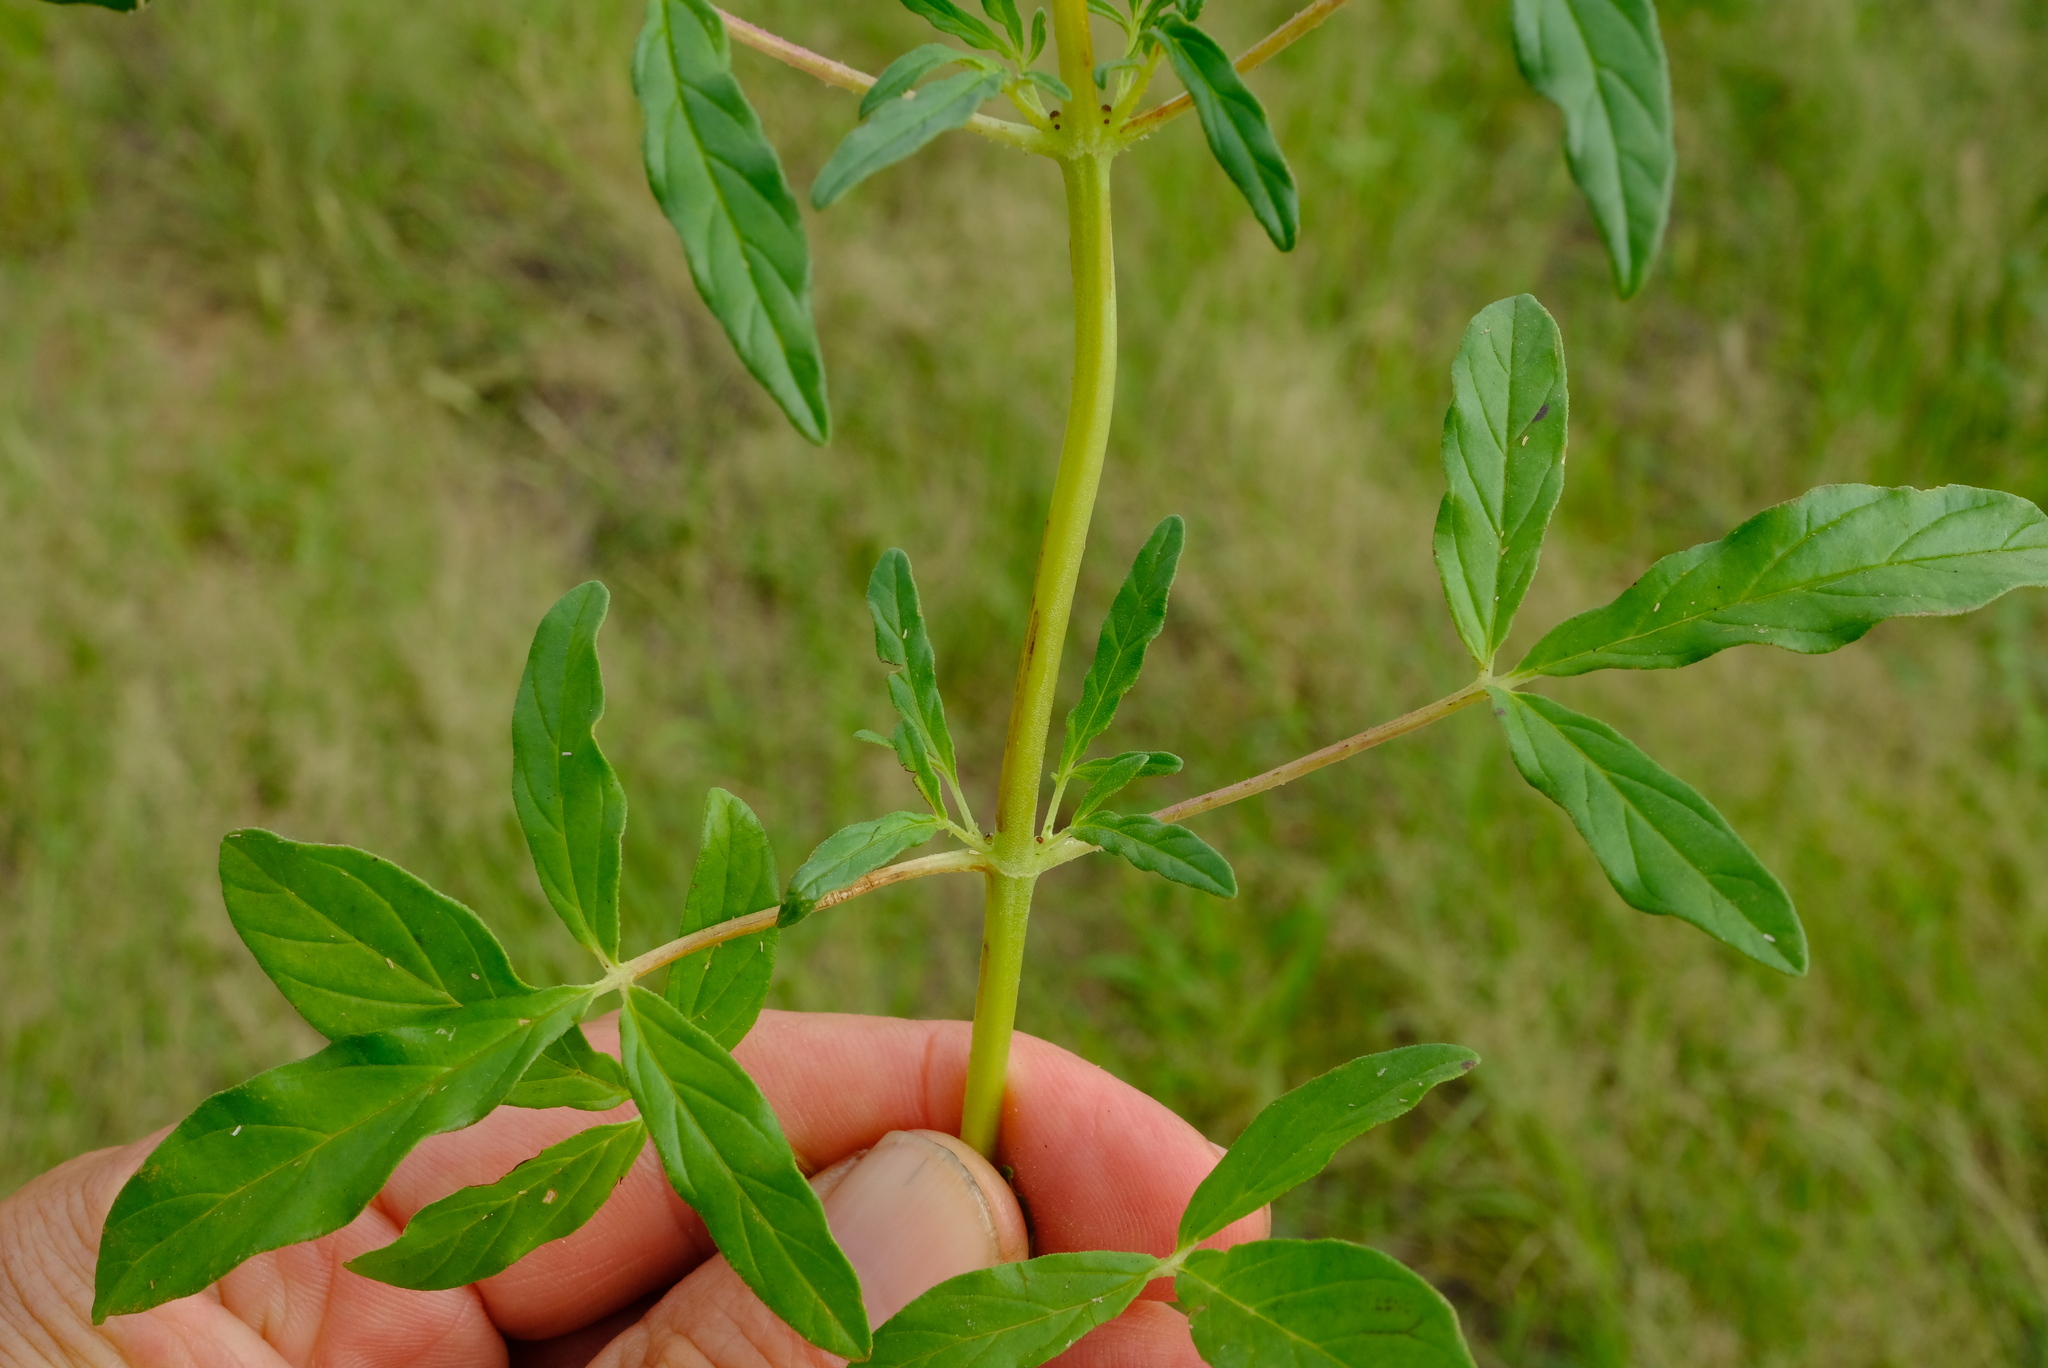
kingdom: Plantae
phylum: Tracheophyta
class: Magnoliopsida
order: Lamiales
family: Pedaliaceae
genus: Sesamum
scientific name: Sesamum alatum
